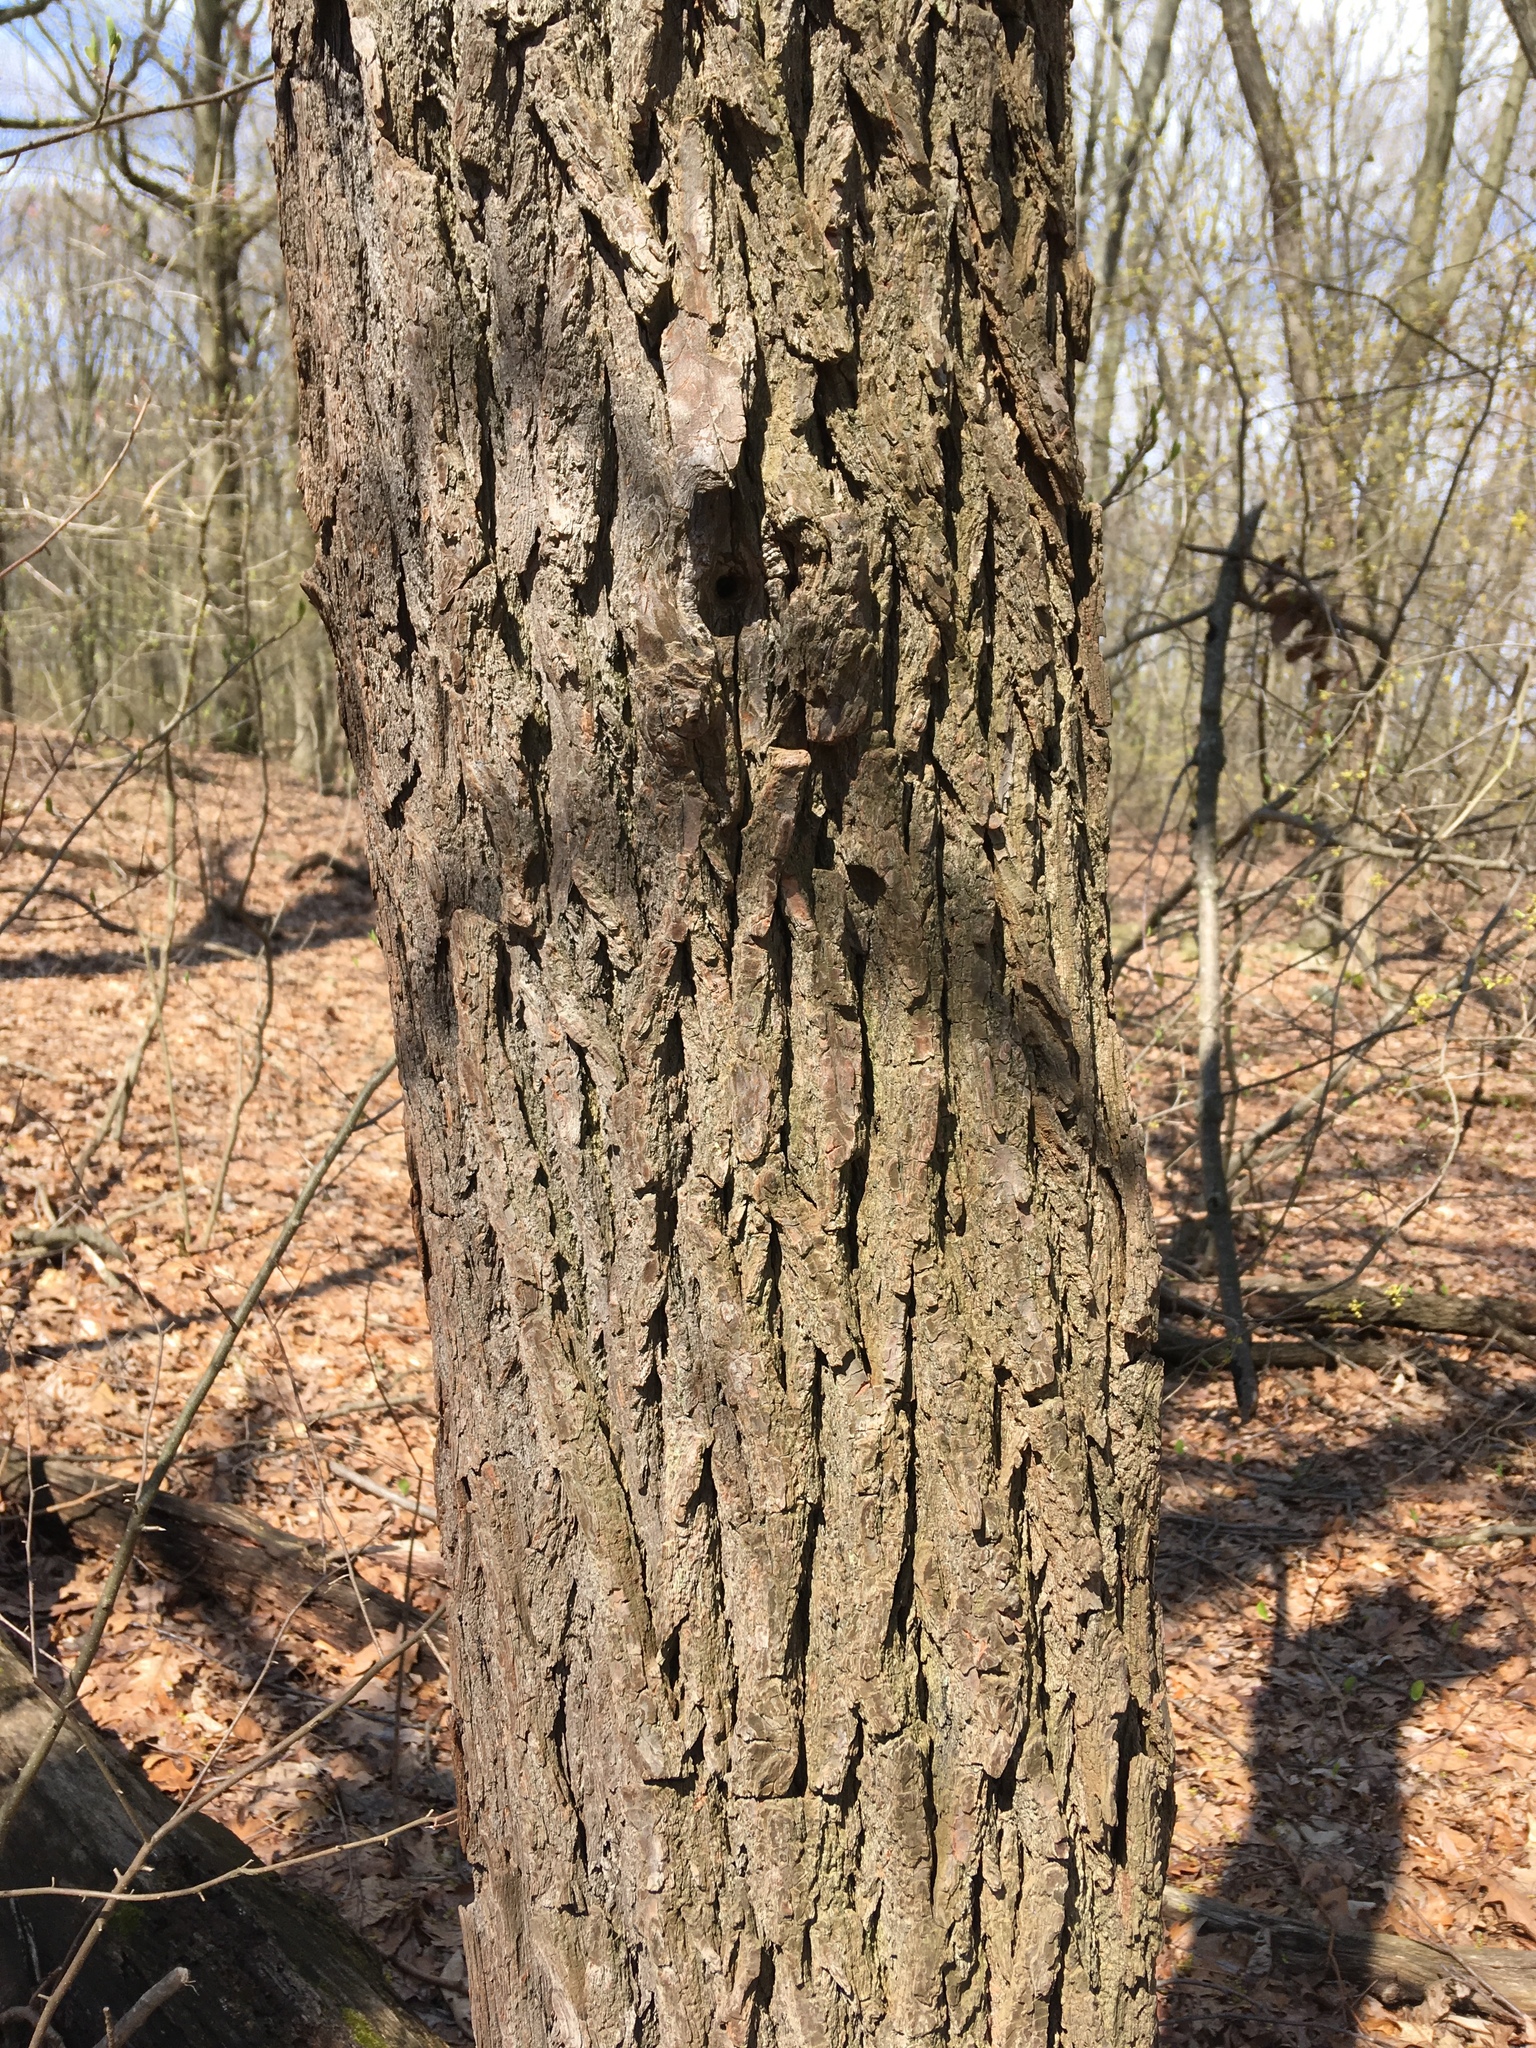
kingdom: Plantae
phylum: Tracheophyta
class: Magnoliopsida
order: Laurales
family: Lauraceae
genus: Sassafras
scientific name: Sassafras albidum
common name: Sassafras
